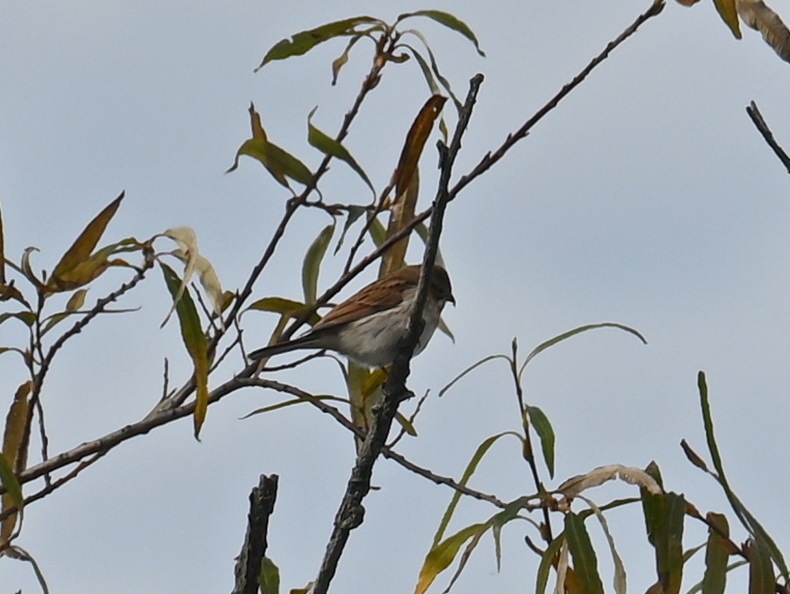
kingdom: Animalia
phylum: Chordata
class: Aves
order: Passeriformes
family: Emberizidae
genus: Emberiza
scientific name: Emberiza schoeniclus
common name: Reed bunting
